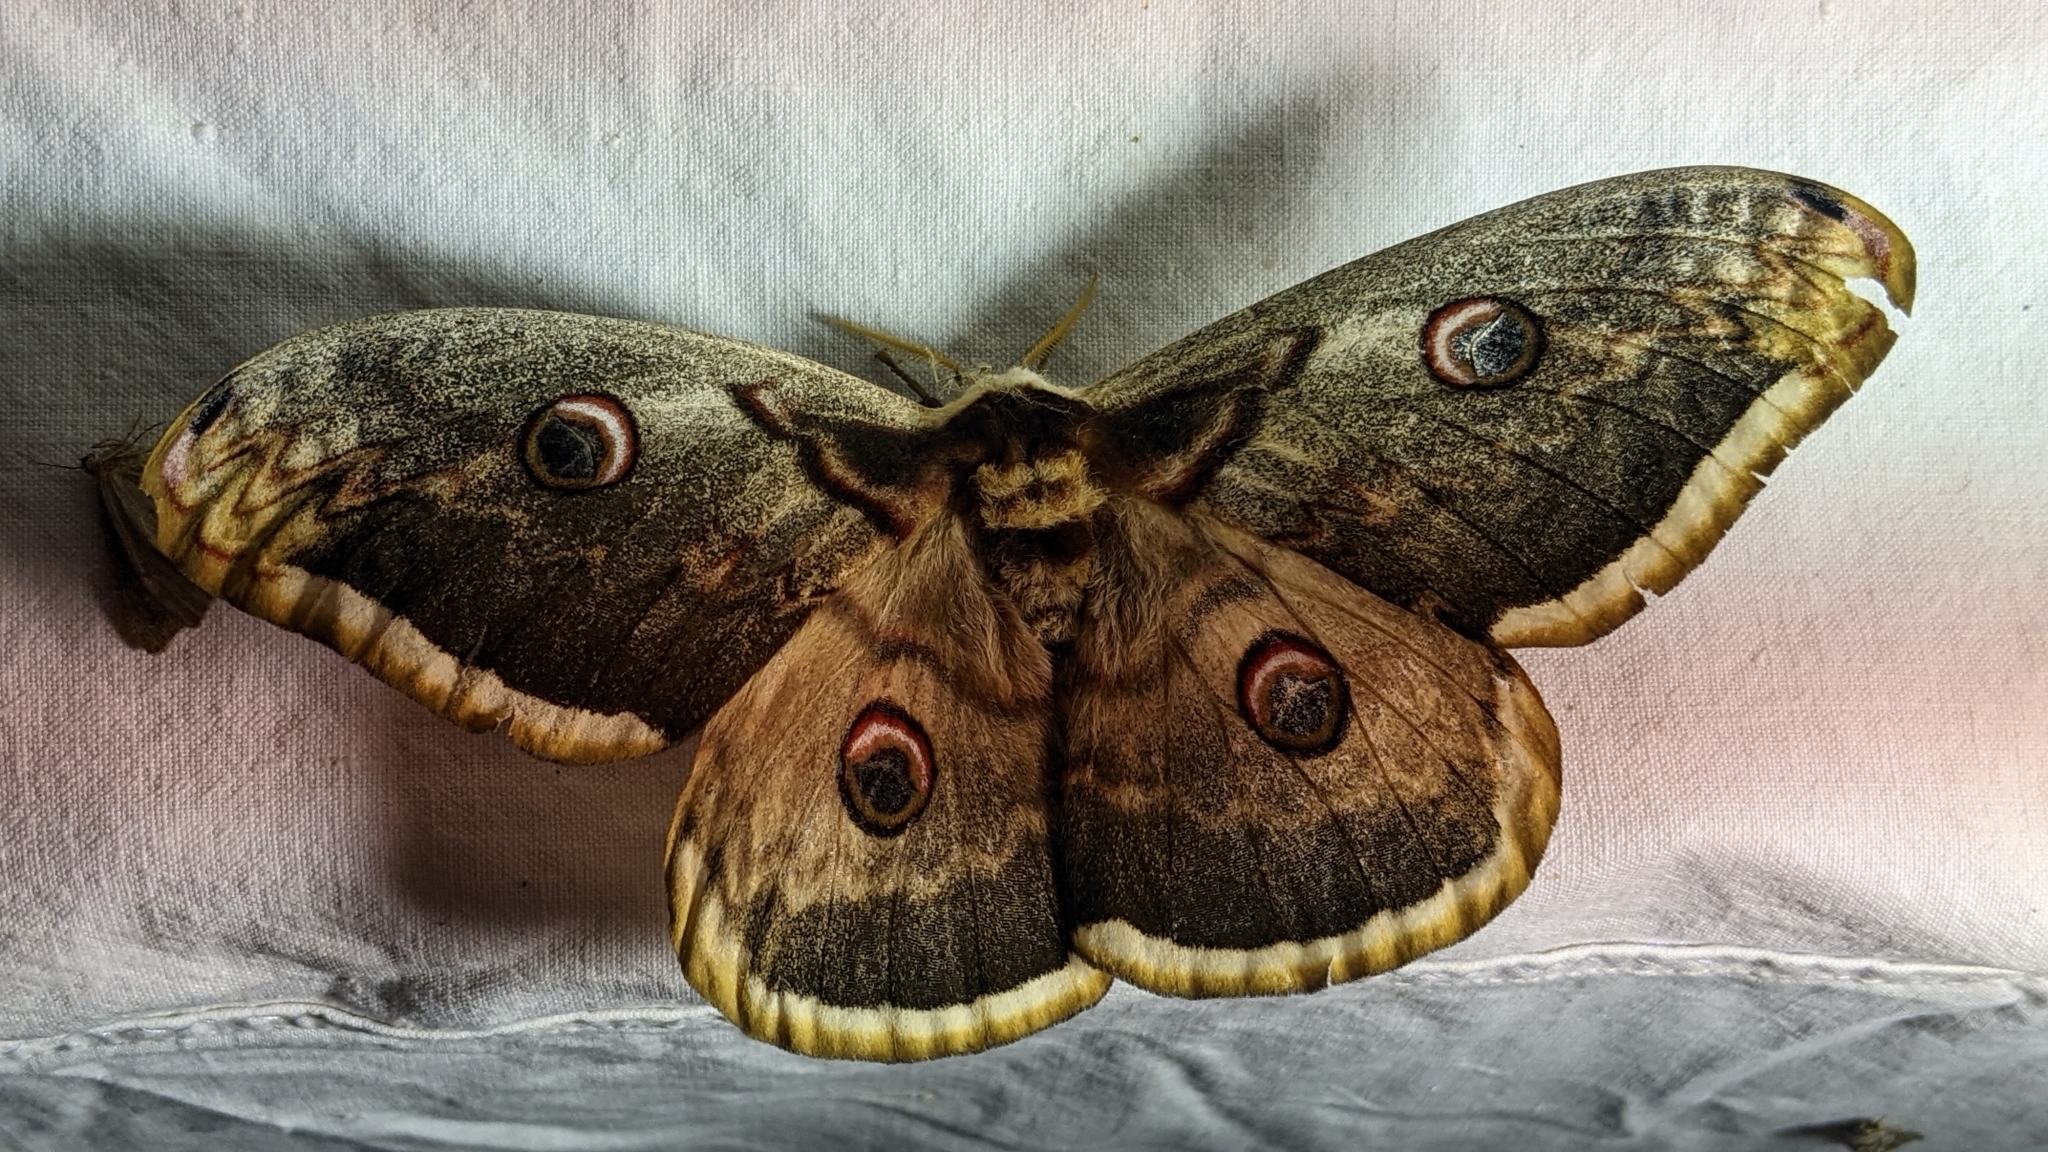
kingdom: Animalia
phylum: Arthropoda
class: Insecta
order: Lepidoptera
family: Saturniidae
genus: Saturnia
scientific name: Saturnia pyri
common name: Great peacock moth
